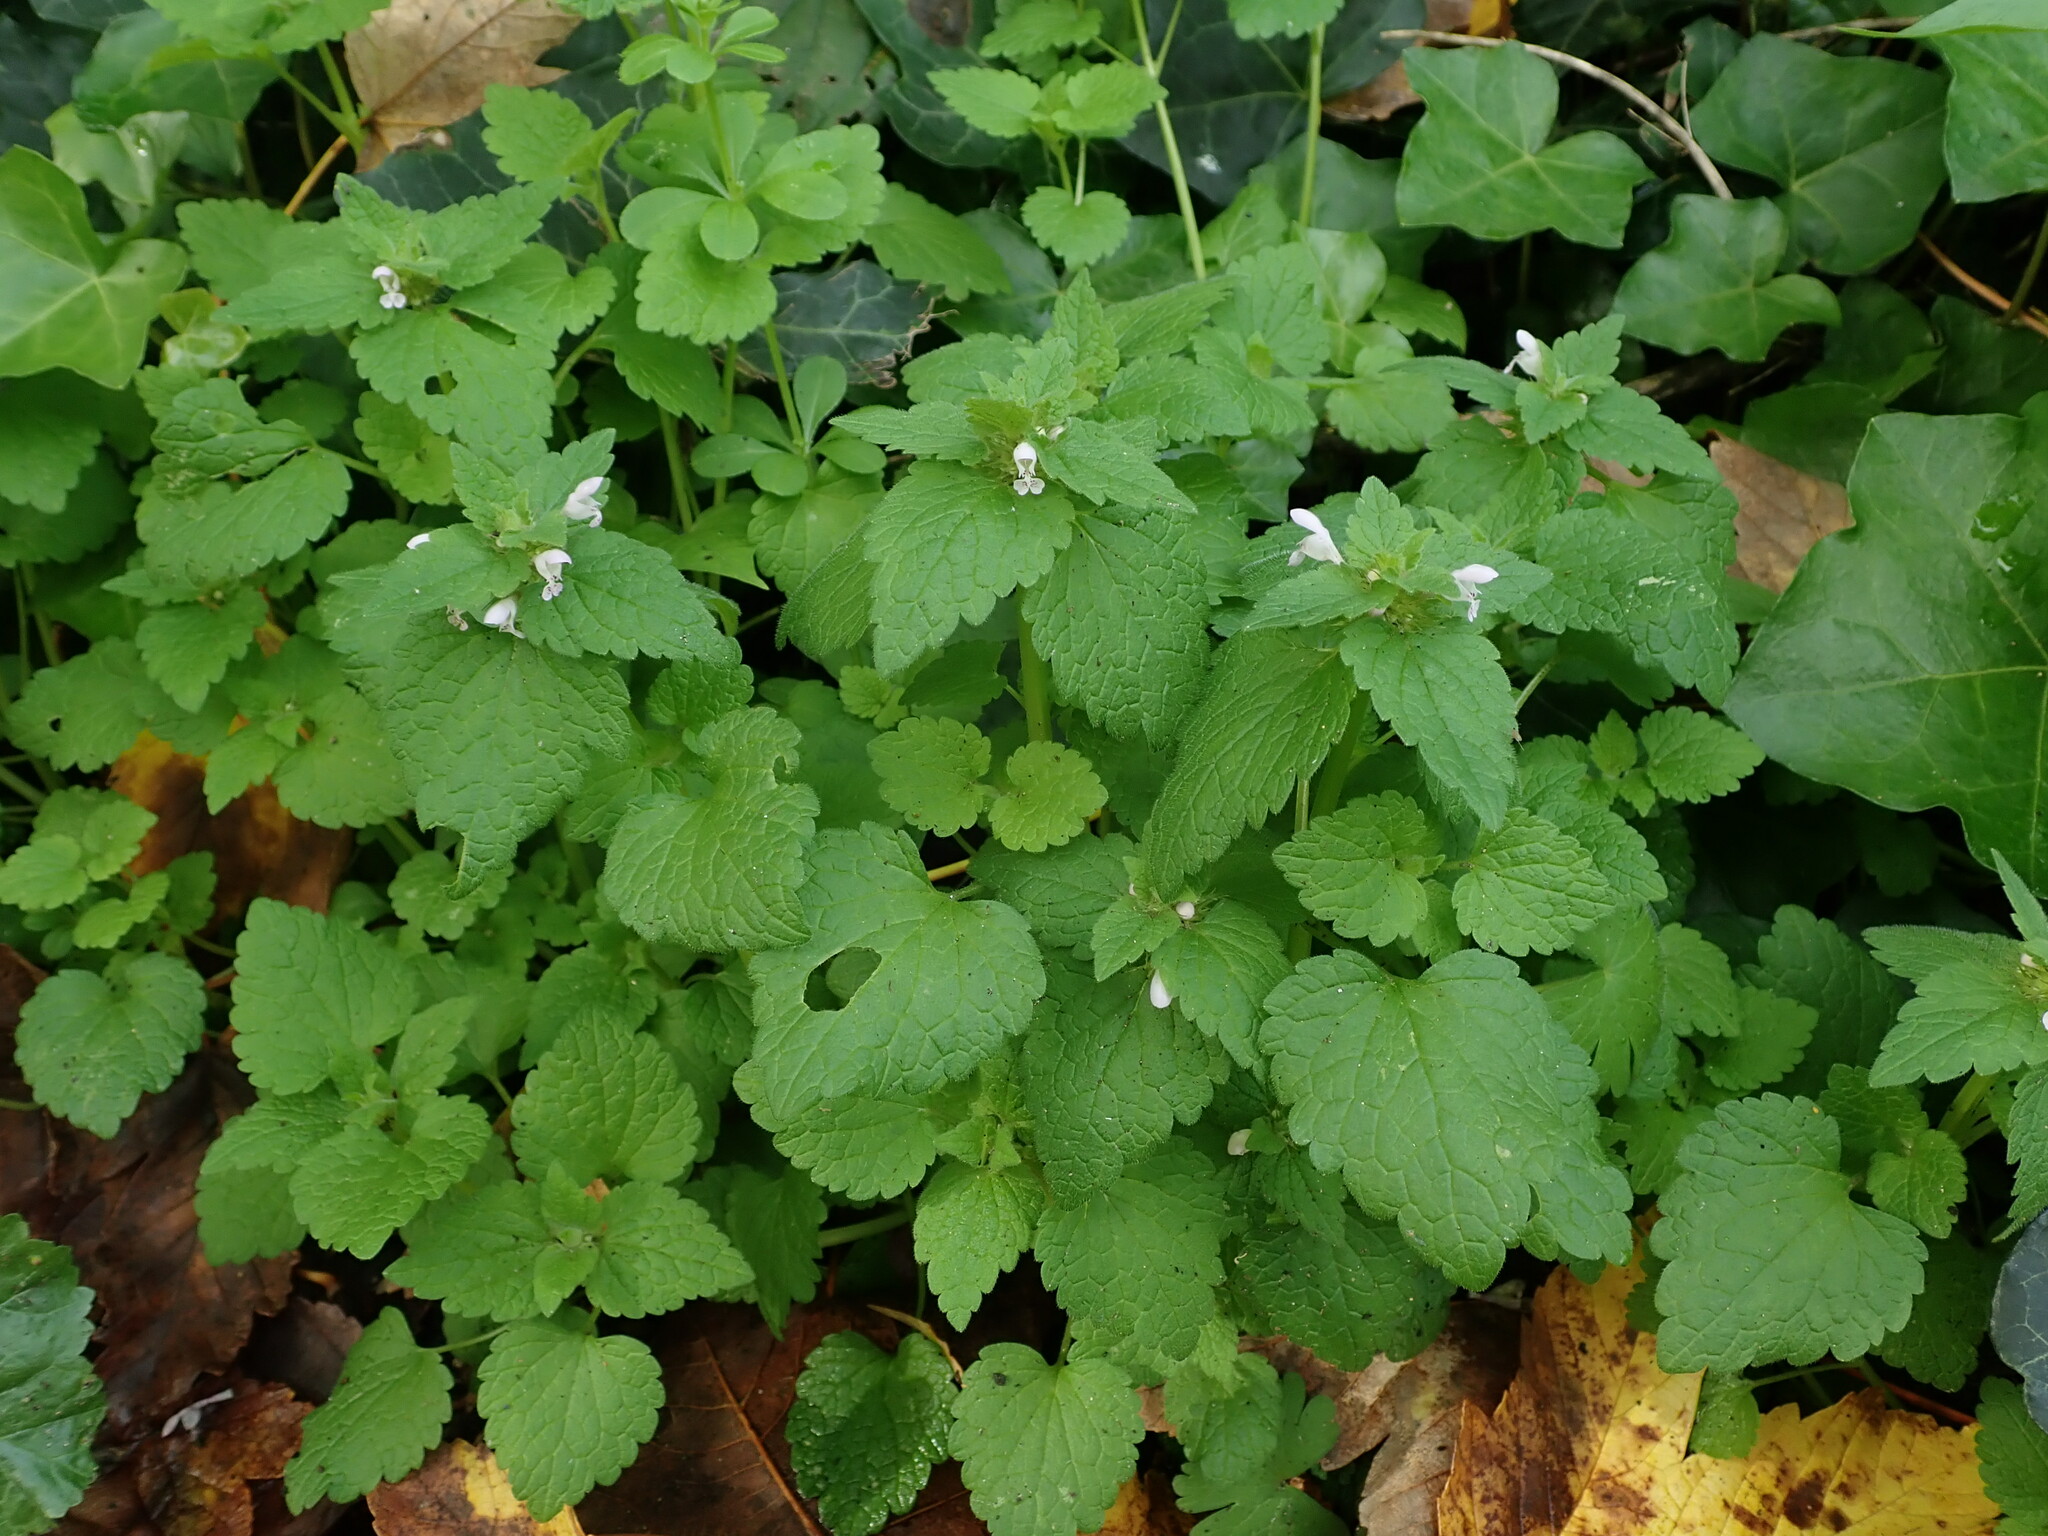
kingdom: Plantae
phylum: Tracheophyta
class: Magnoliopsida
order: Lamiales
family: Lamiaceae
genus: Lamium
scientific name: Lamium purpureum
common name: Red dead-nettle
